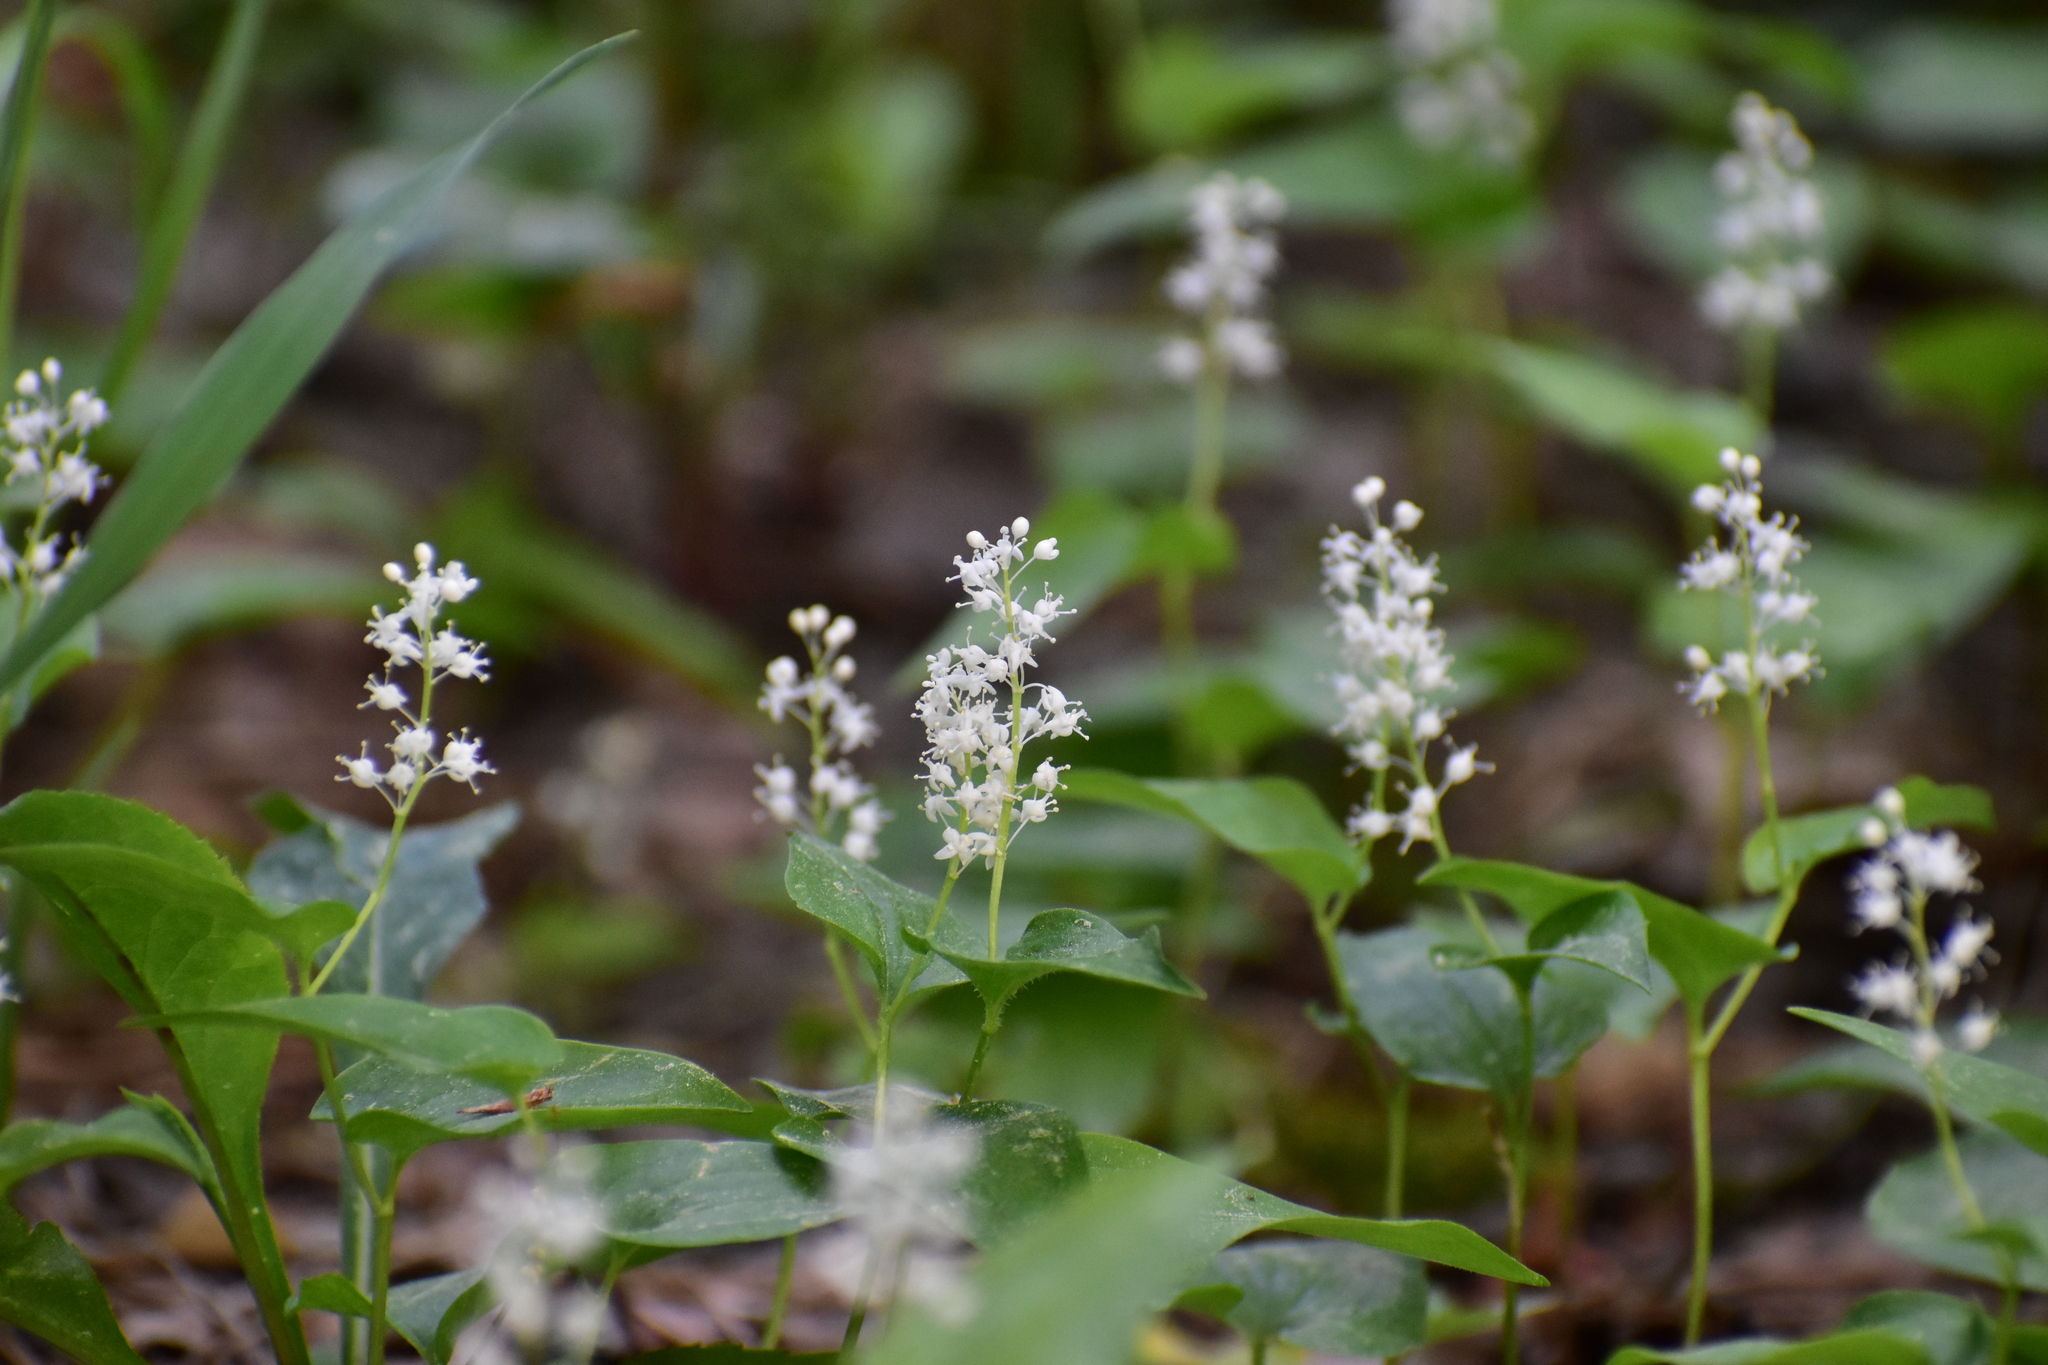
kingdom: Plantae
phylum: Tracheophyta
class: Liliopsida
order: Asparagales
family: Asparagaceae
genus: Maianthemum
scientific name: Maianthemum bifolium
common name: May lily
